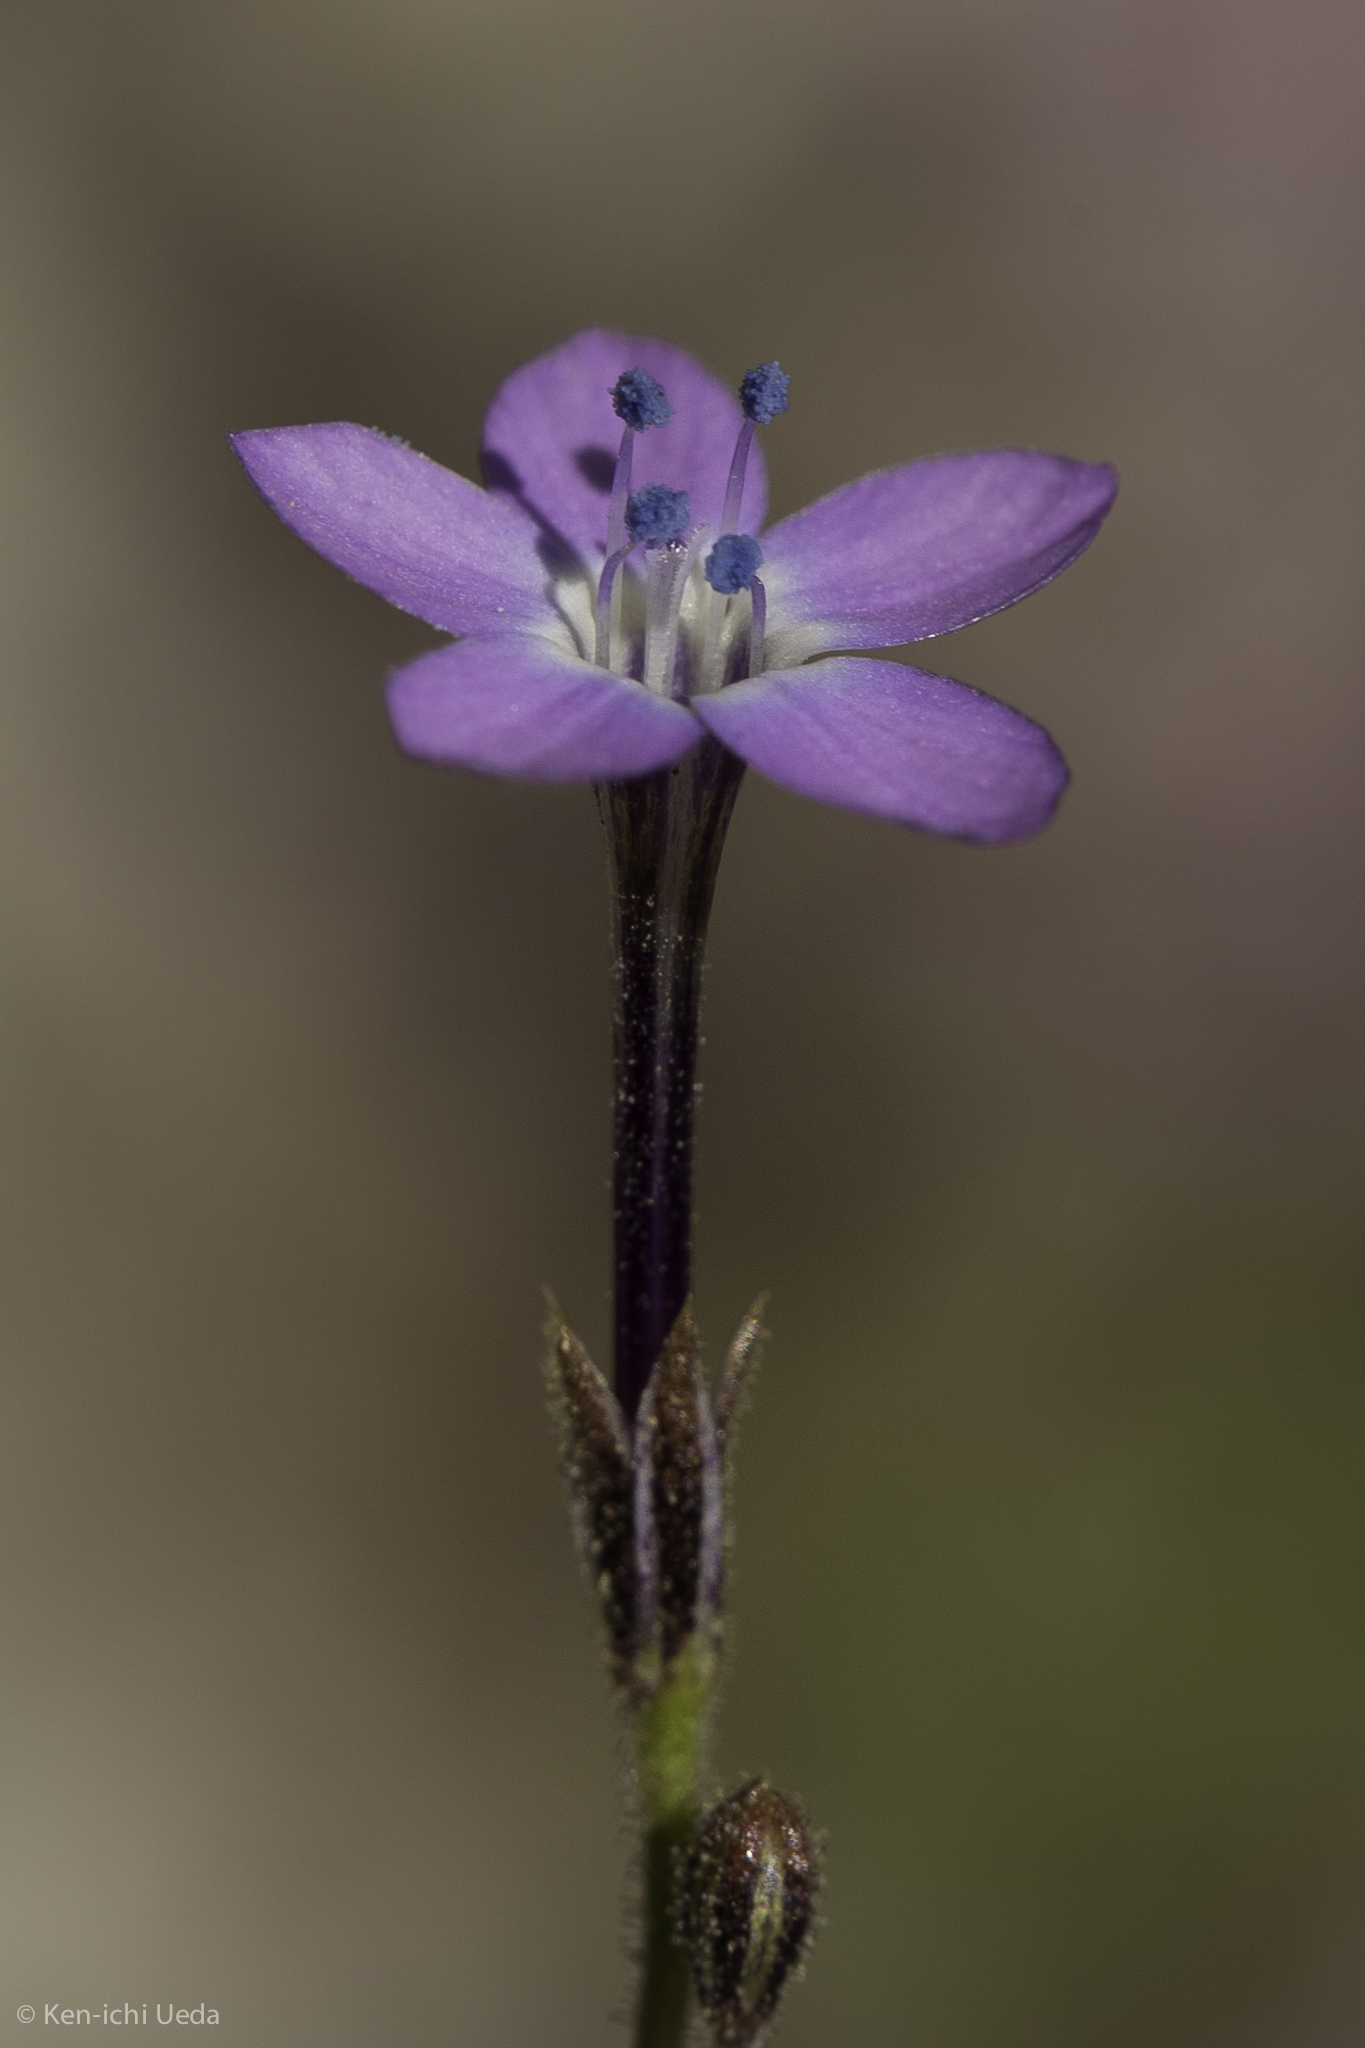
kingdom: Plantae
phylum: Tracheophyta
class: Magnoliopsida
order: Ericales
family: Polemoniaceae
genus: Gilia
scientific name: Gilia tenuiflora
